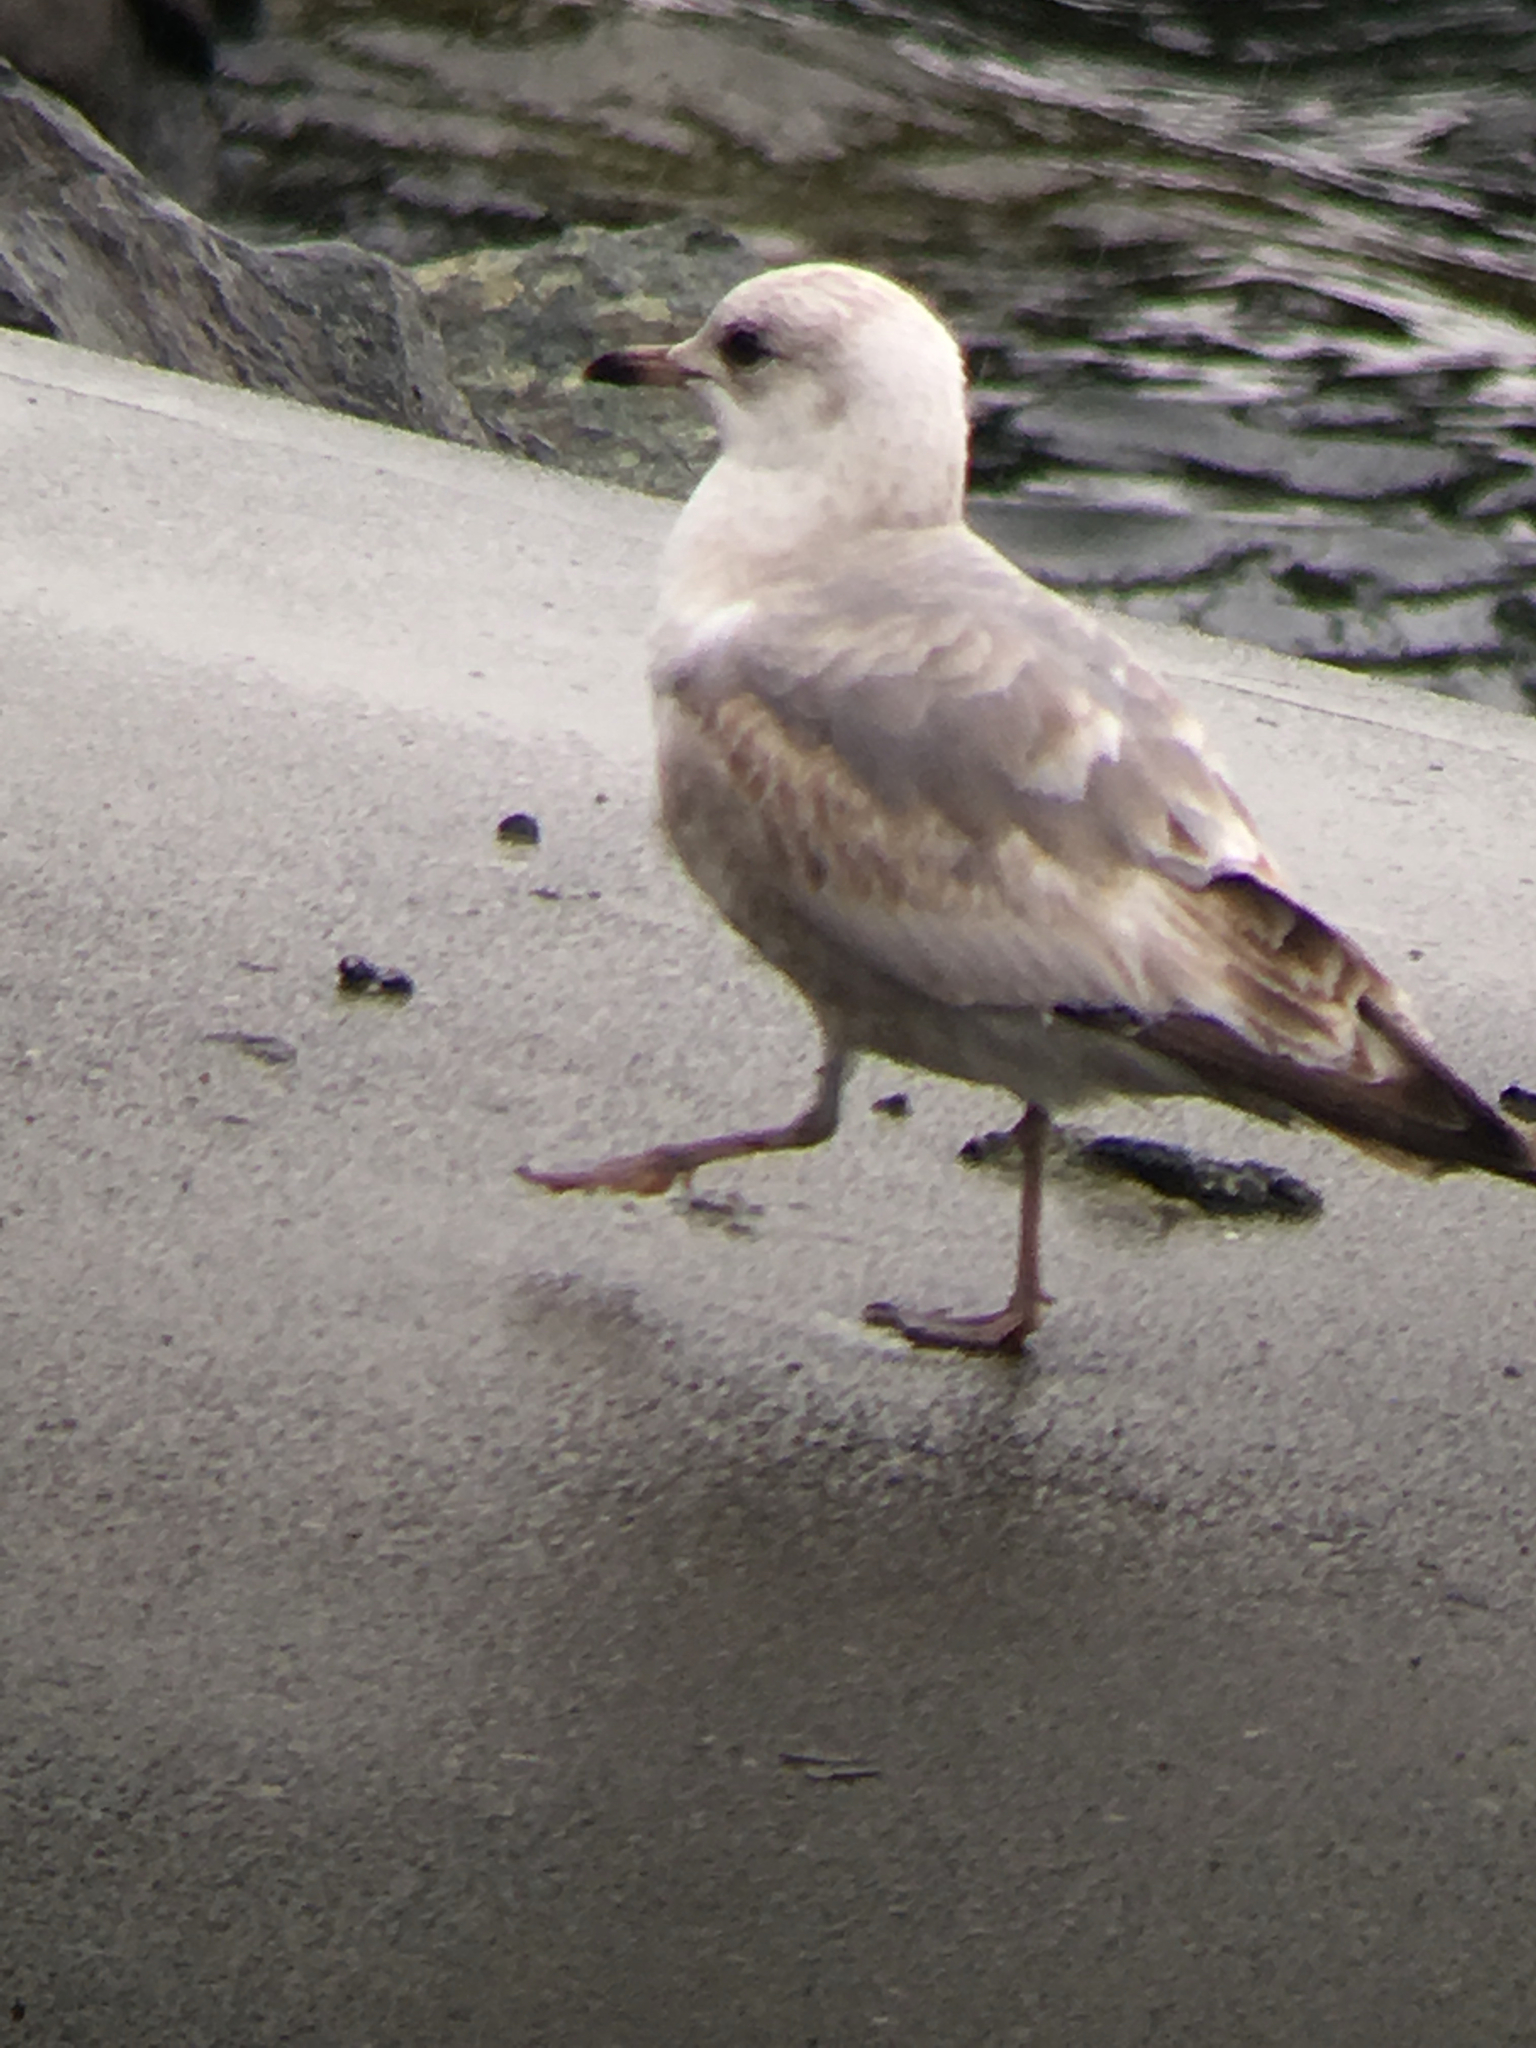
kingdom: Animalia
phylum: Chordata
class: Aves
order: Charadriiformes
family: Laridae
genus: Larus
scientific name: Larus brachyrhynchus
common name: Short-billed gull
